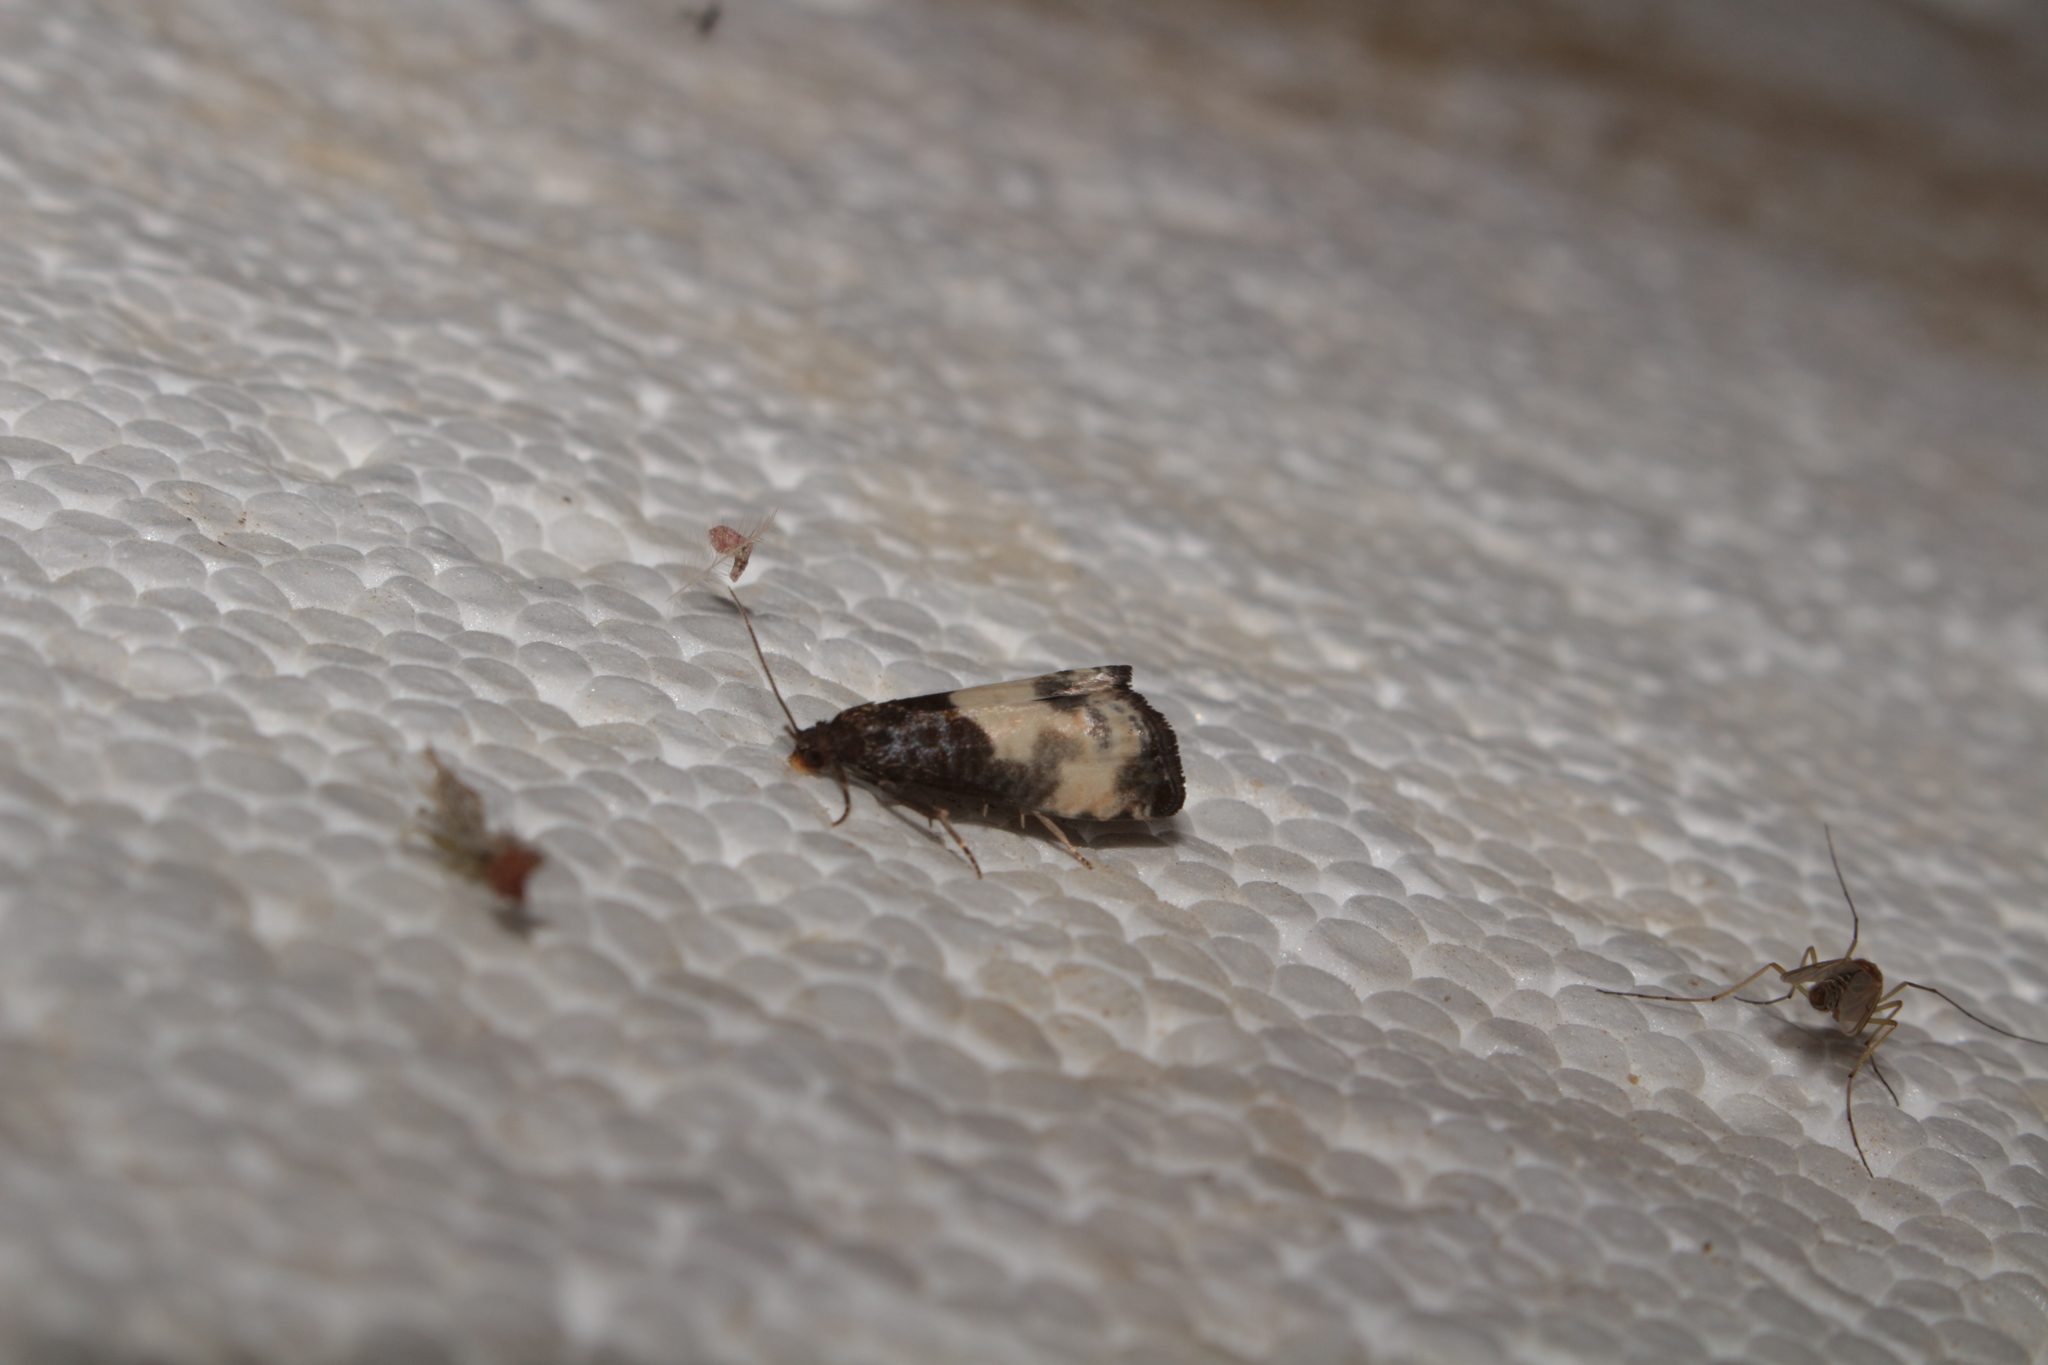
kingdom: Animalia
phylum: Arthropoda
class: Insecta
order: Lepidoptera
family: Tortricidae
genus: Notocelia
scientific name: Notocelia cynosbatella
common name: Yellow-faced bell moth
